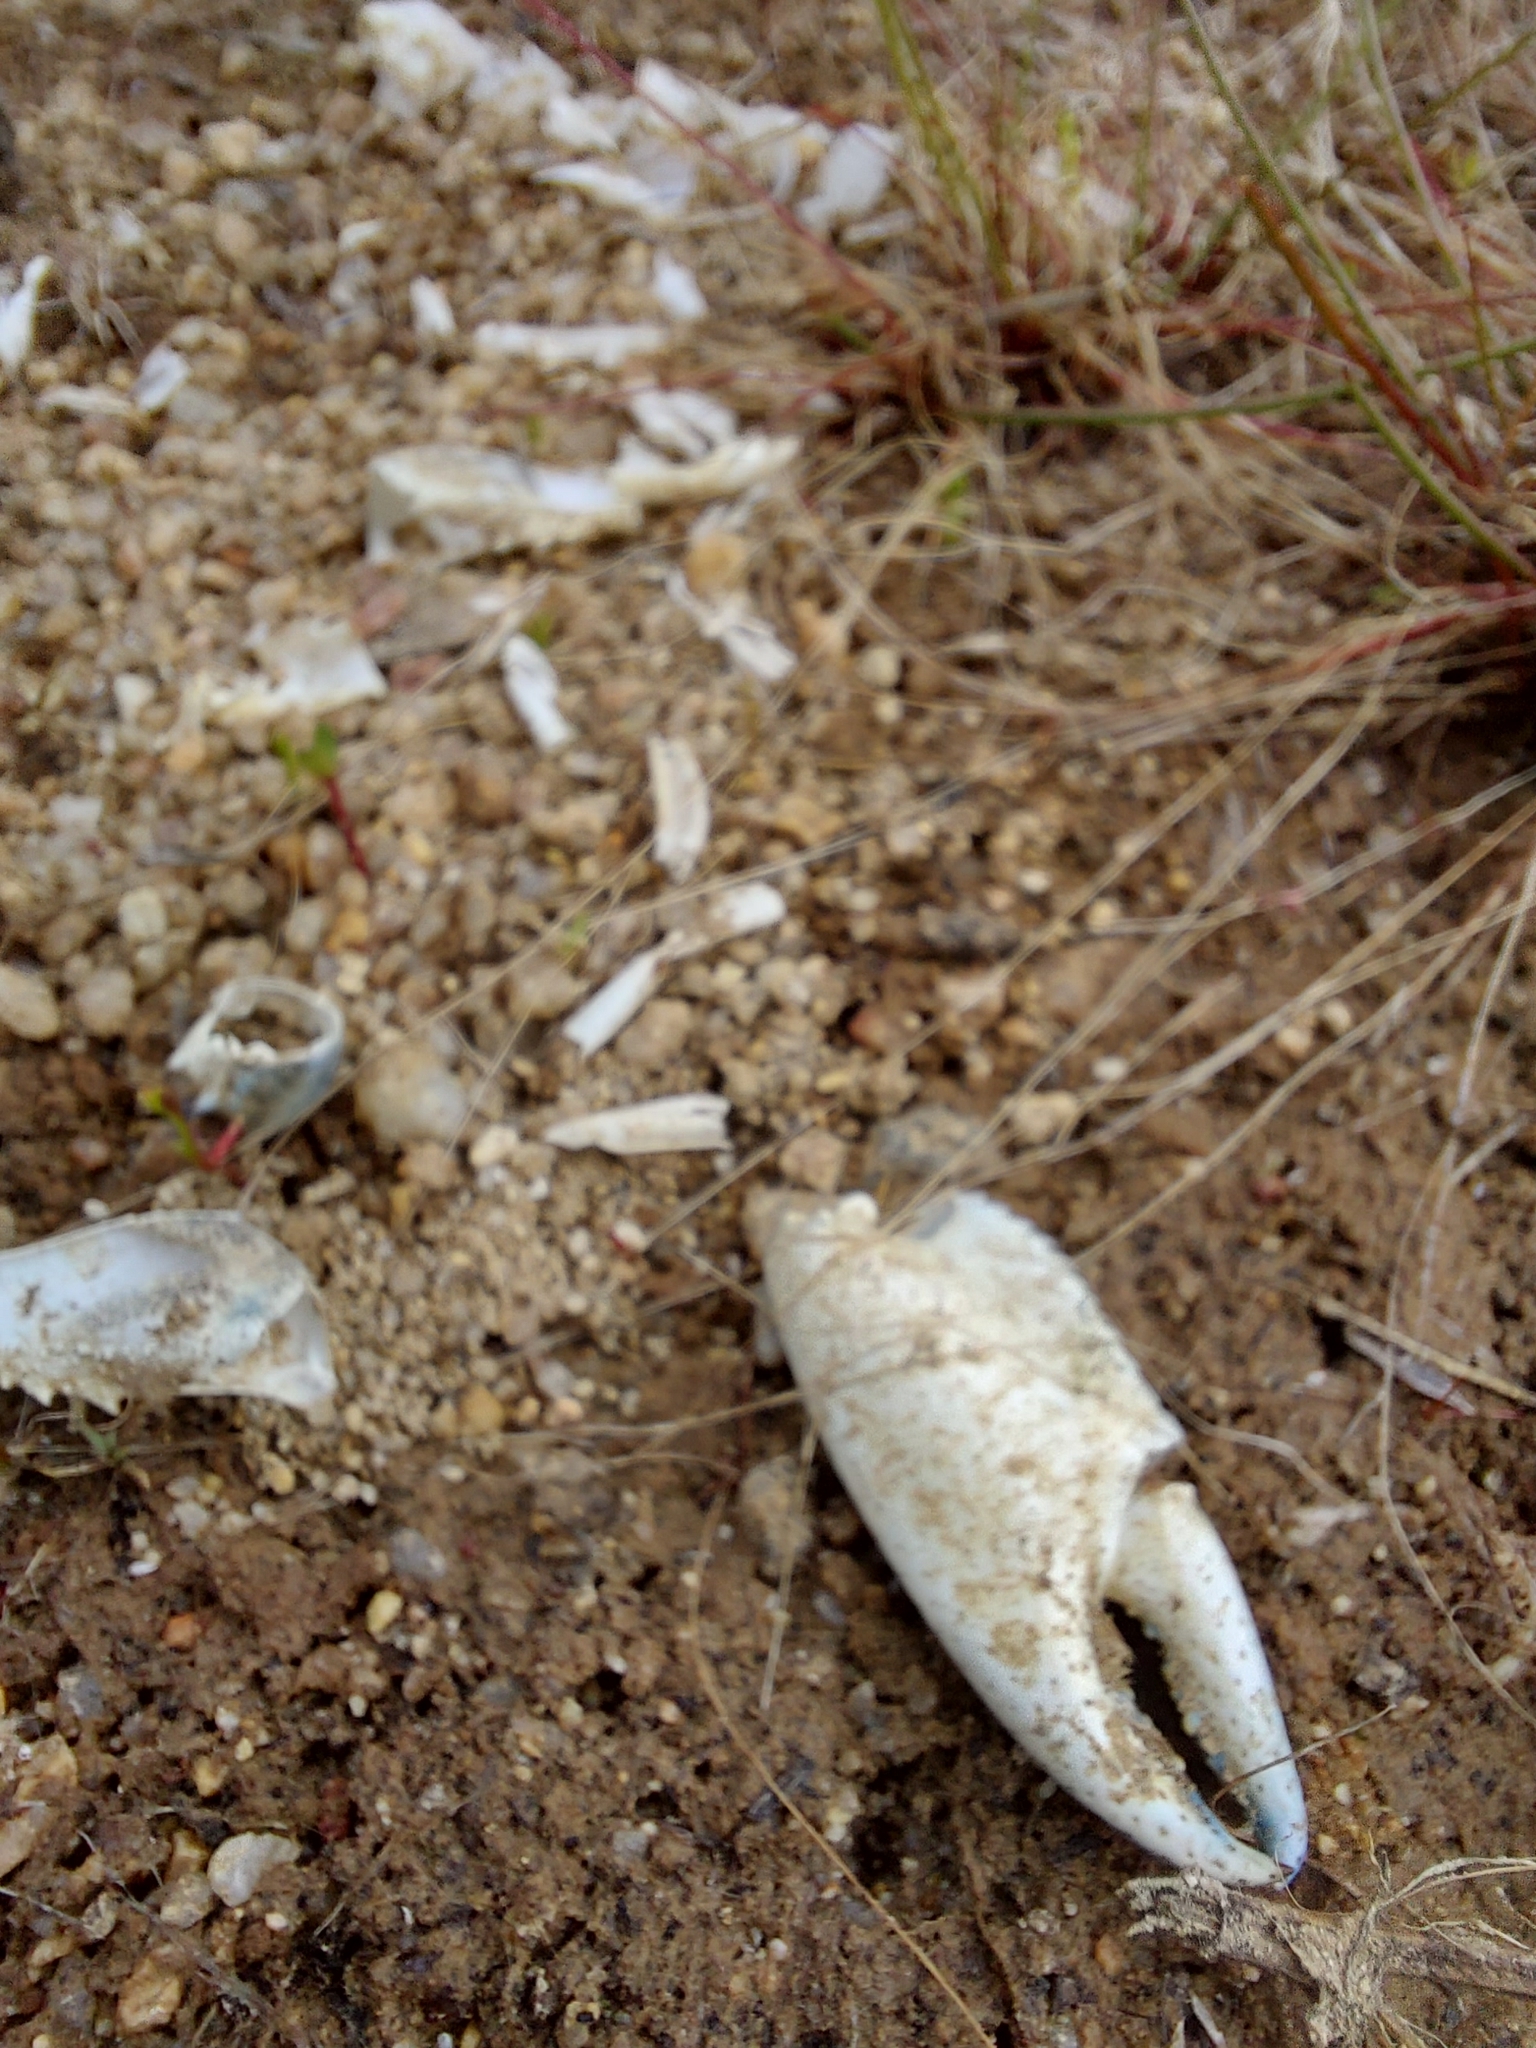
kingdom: Animalia
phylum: Arthropoda
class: Malacostraca
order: Decapoda
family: Parastacidae
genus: Cherax
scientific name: Cherax destructor
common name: Yabby
